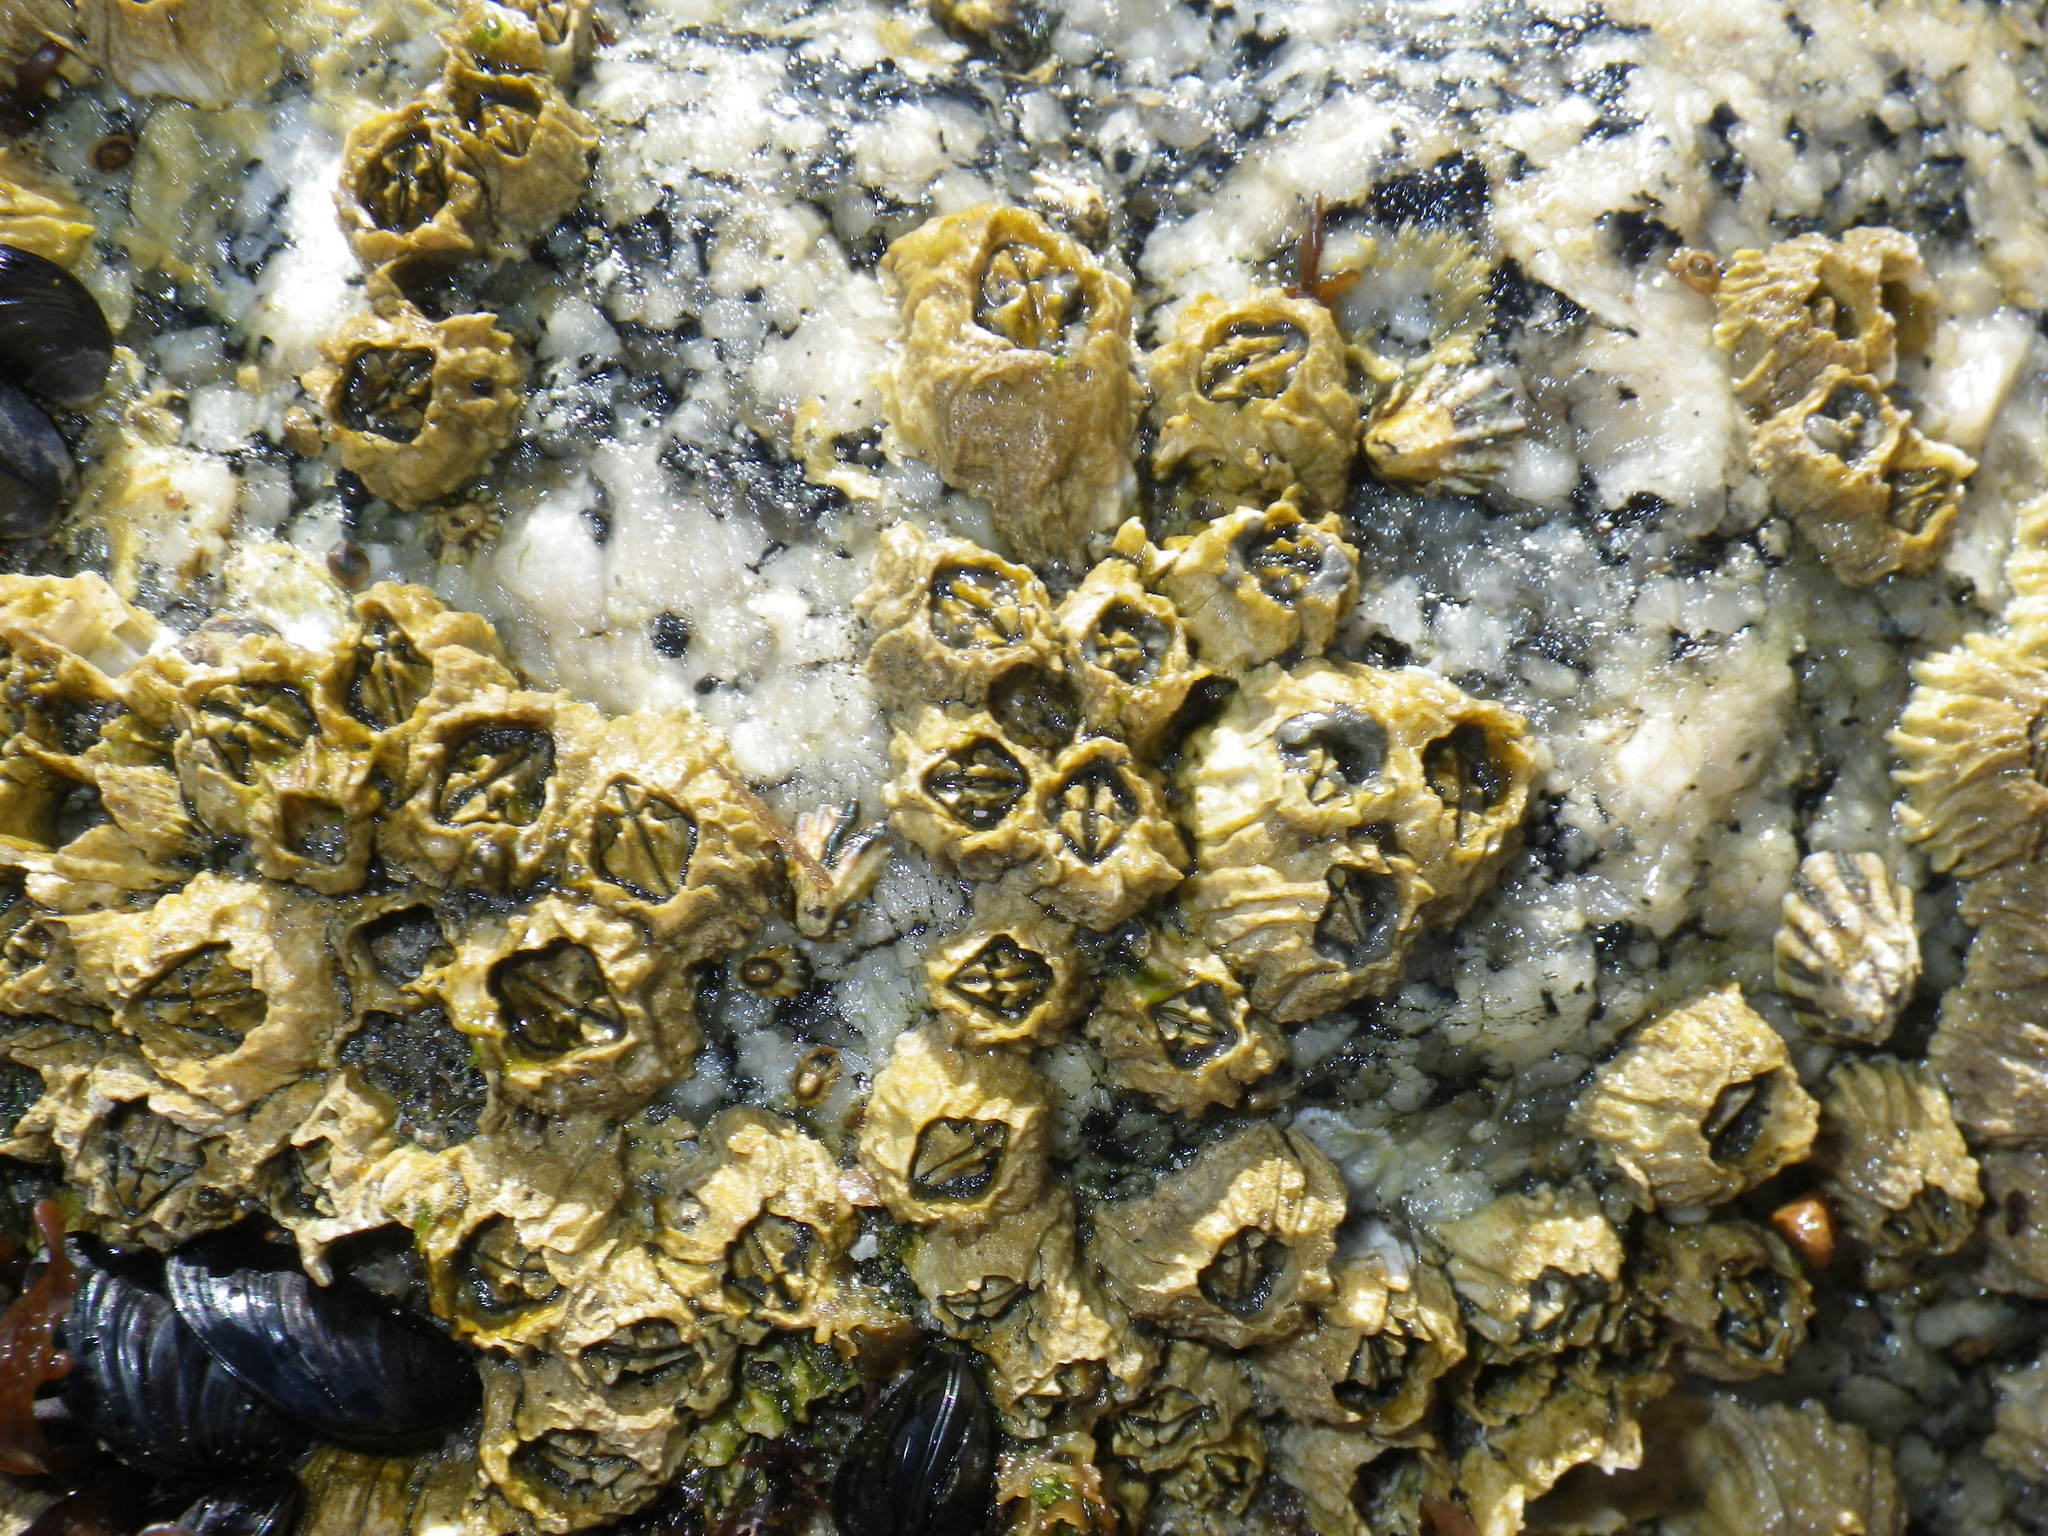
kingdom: Animalia
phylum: Arthropoda
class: Maxillopoda
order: Sessilia
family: Balanidae
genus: Balanus
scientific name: Balanus glandula
